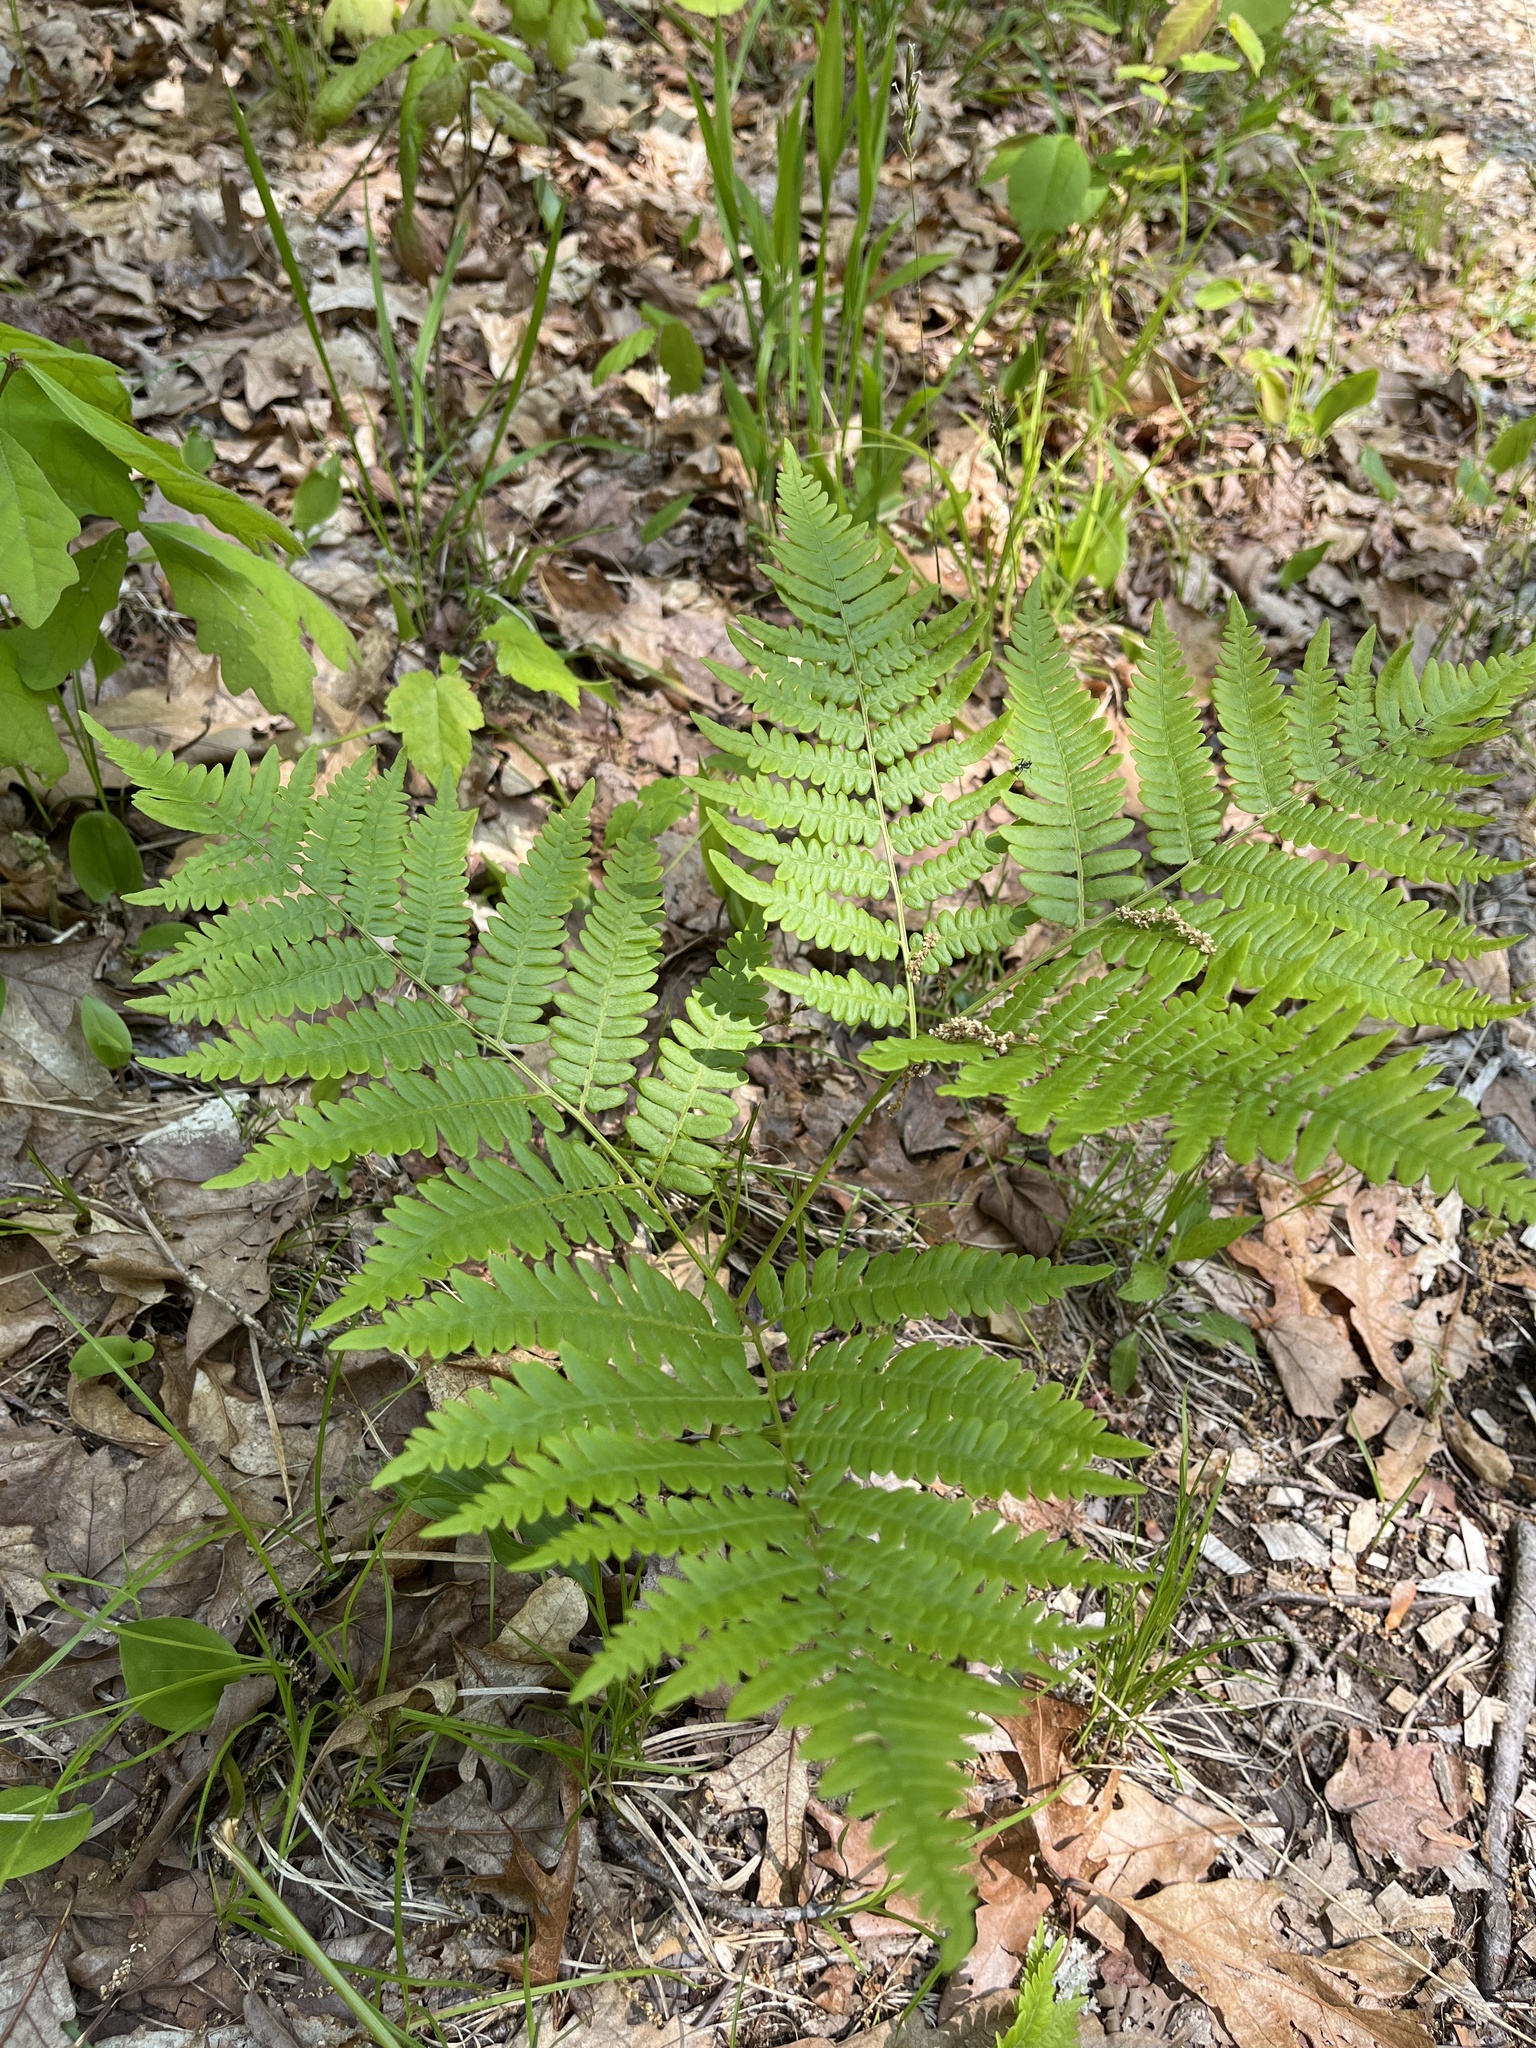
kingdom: Plantae
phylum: Tracheophyta
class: Polypodiopsida
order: Polypodiales
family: Dennstaedtiaceae
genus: Pteridium
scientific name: Pteridium aquilinum
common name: Bracken
